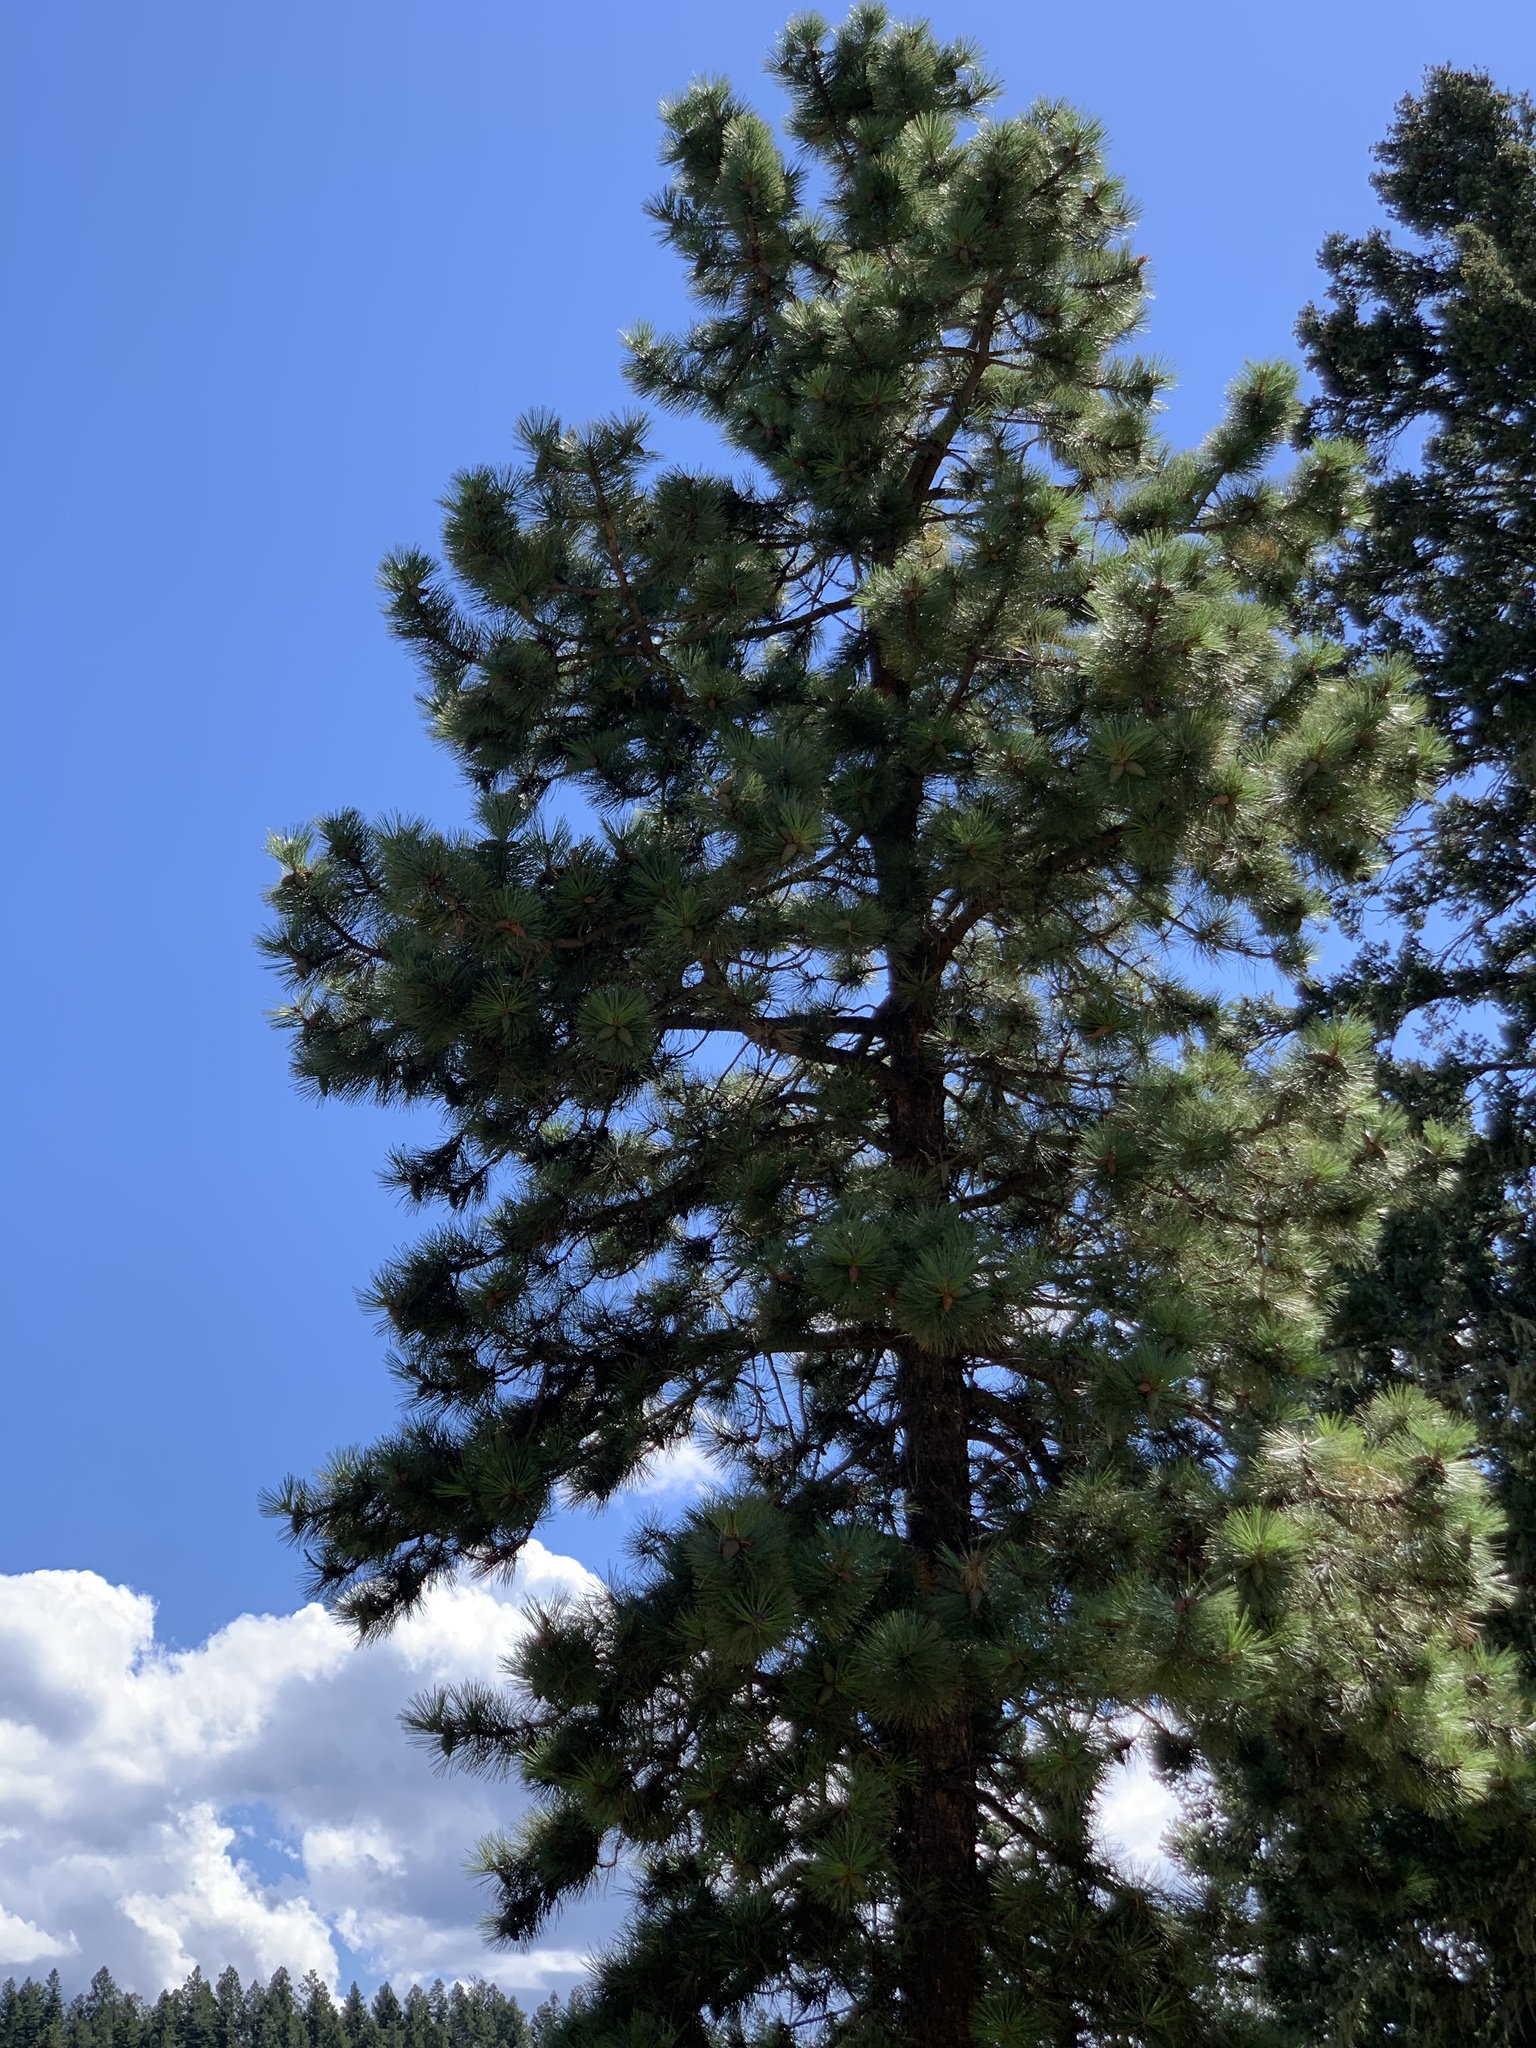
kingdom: Plantae
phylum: Tracheophyta
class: Pinopsida
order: Pinales
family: Pinaceae
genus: Pinus
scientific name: Pinus ponderosa
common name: Western yellow-pine
